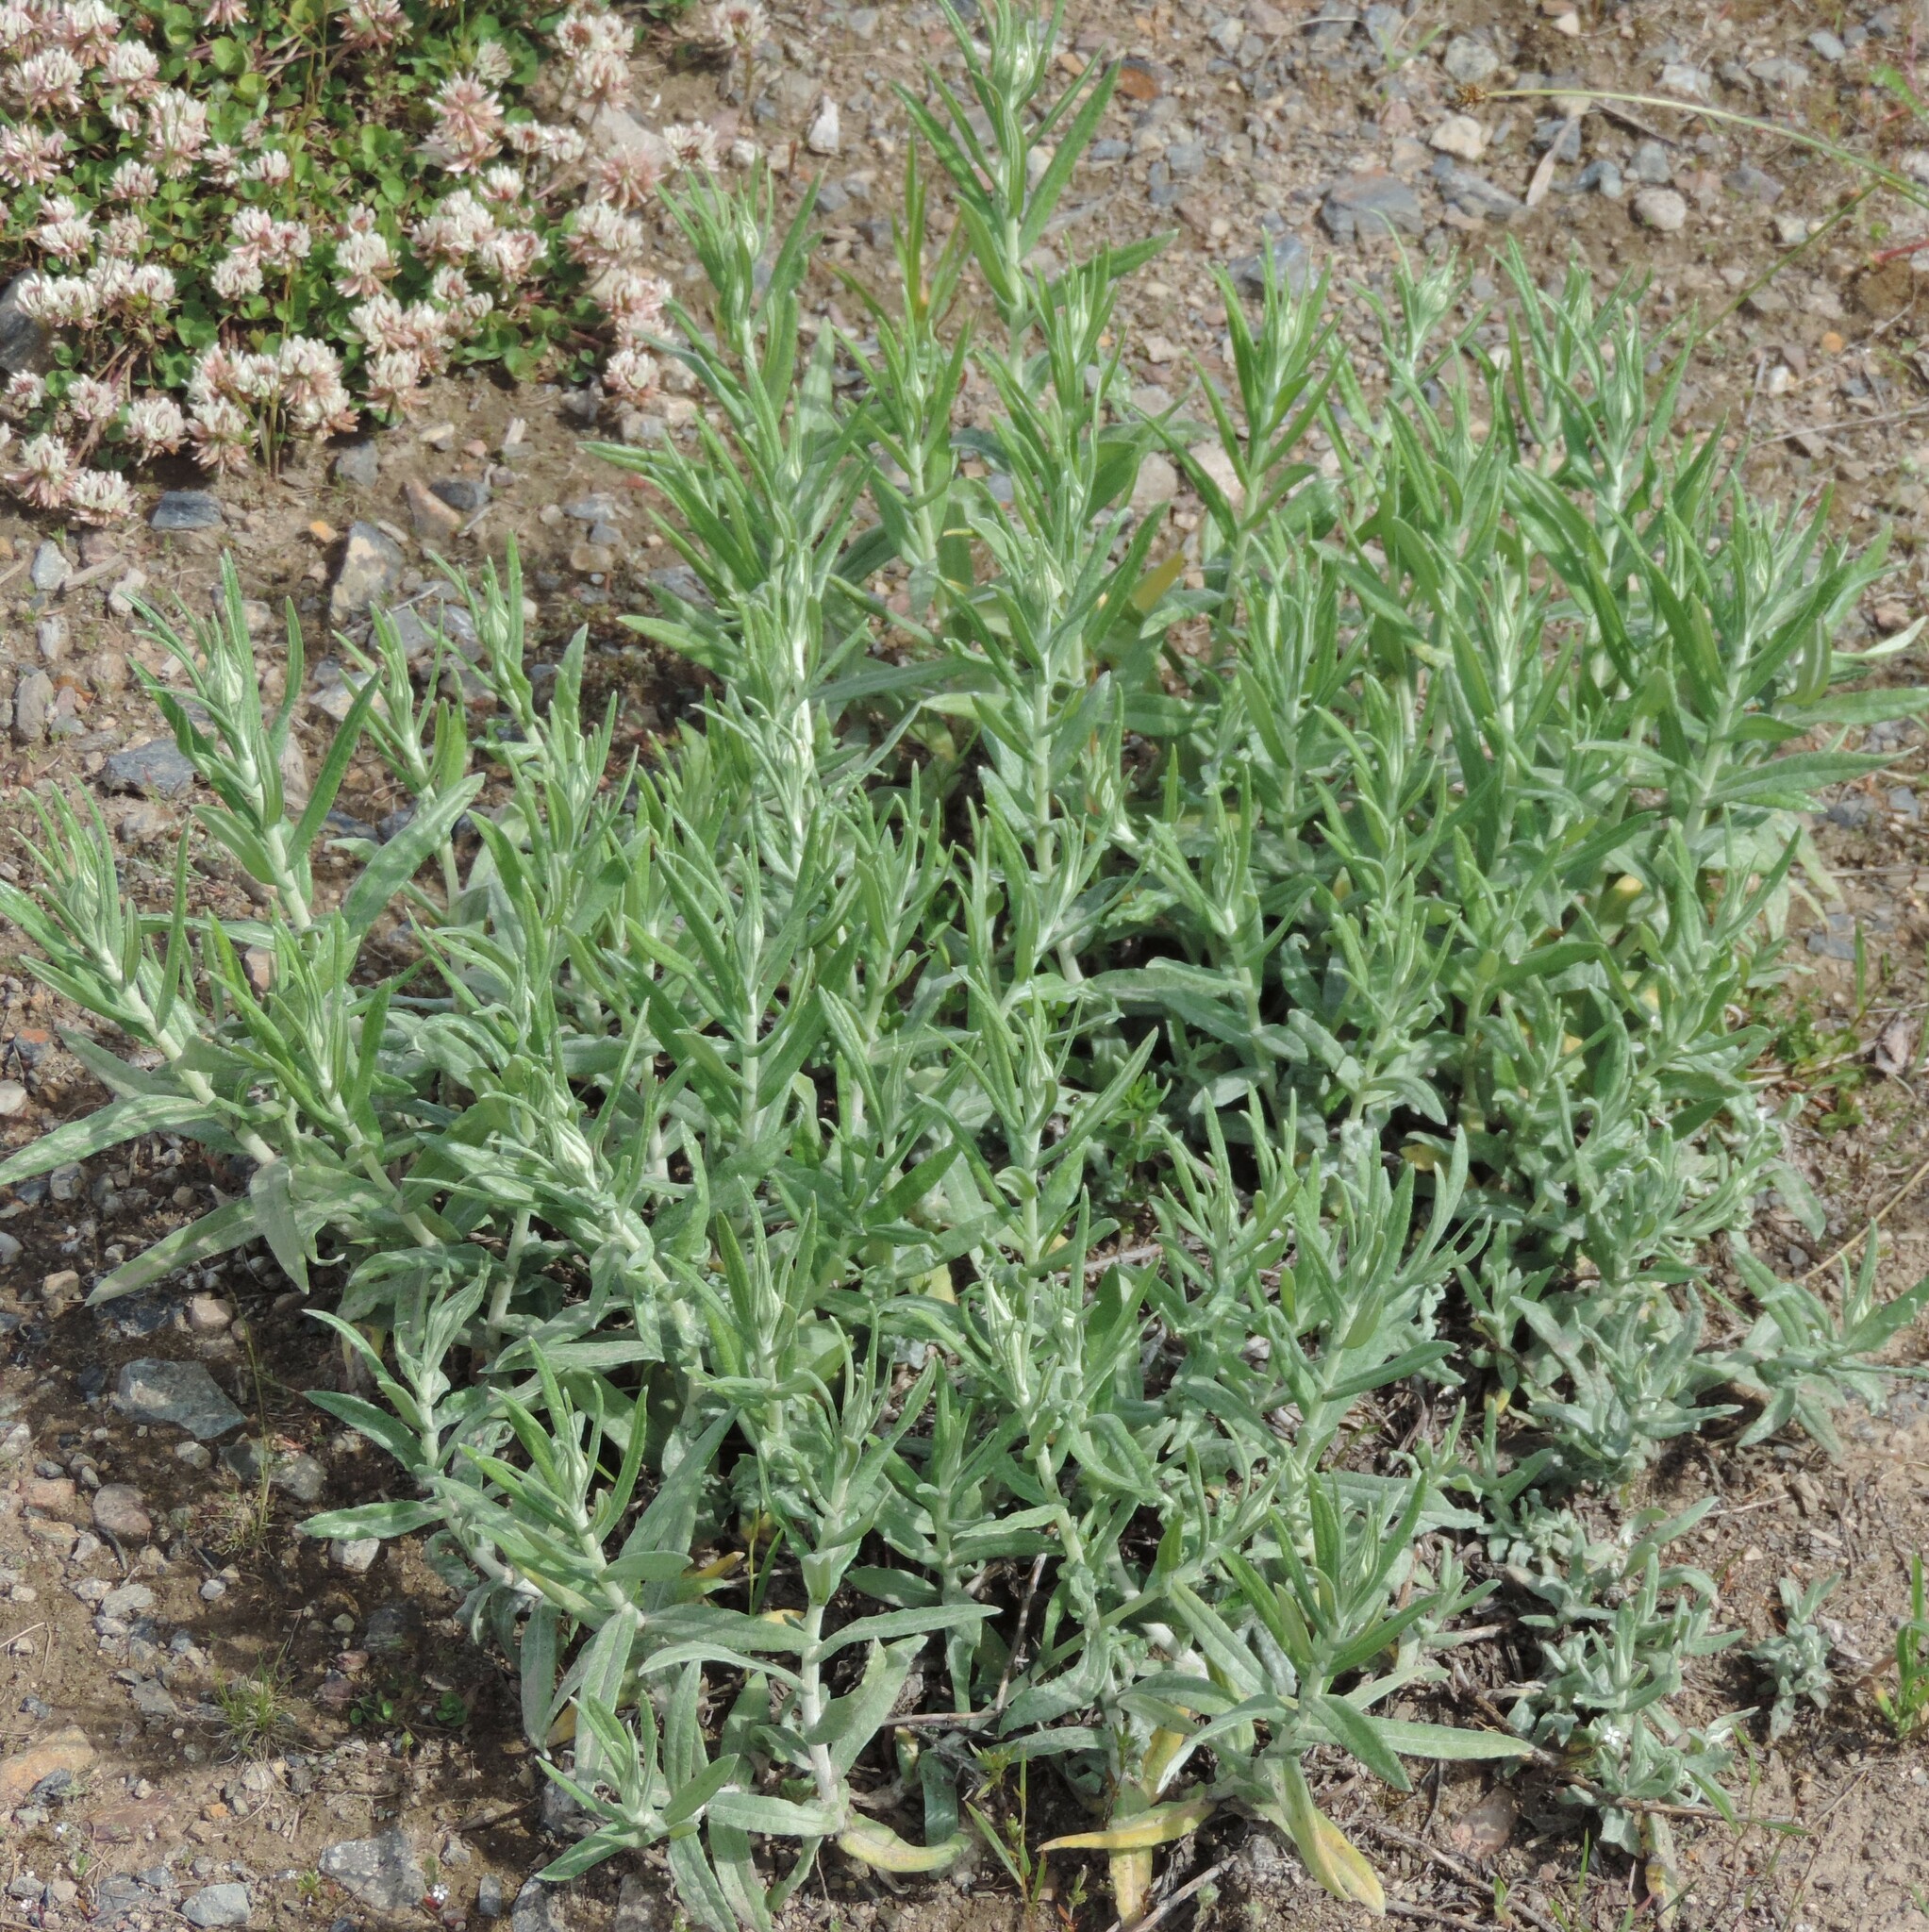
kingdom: Plantae
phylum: Tracheophyta
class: Magnoliopsida
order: Asterales
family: Asteraceae
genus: Anaphalis
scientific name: Anaphalis margaritacea
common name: Pearly everlasting
